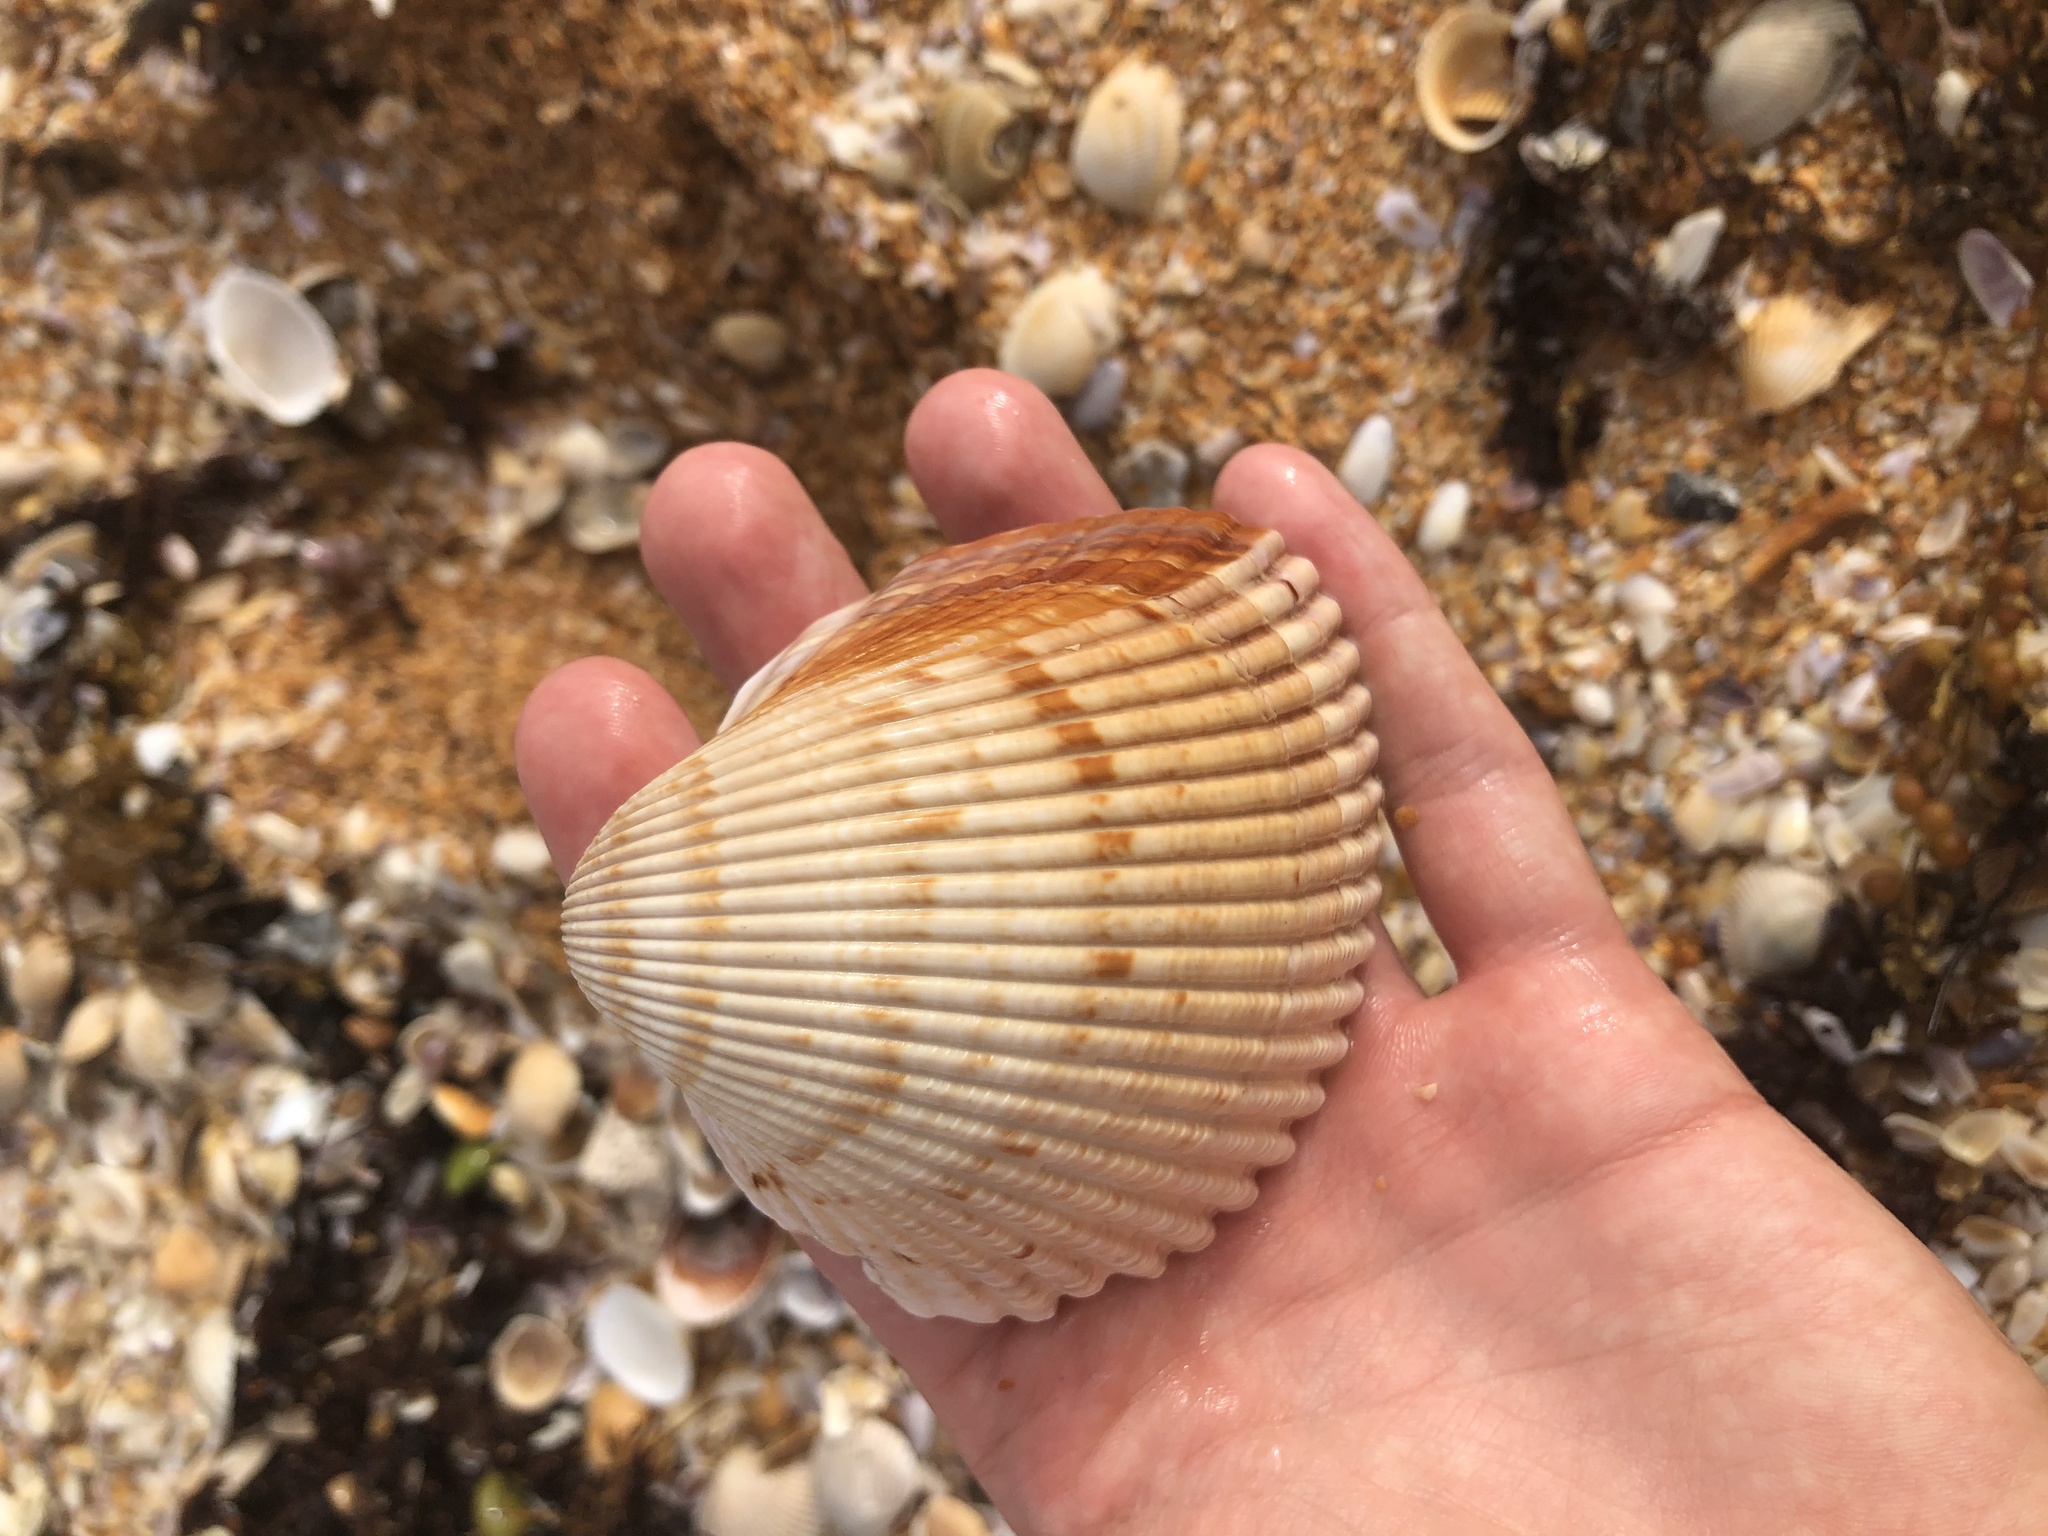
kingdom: Animalia
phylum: Mollusca
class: Bivalvia
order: Cardiida
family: Cardiidae
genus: Dinocardium
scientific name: Dinocardium robustum
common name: Atlantic giant cockle
